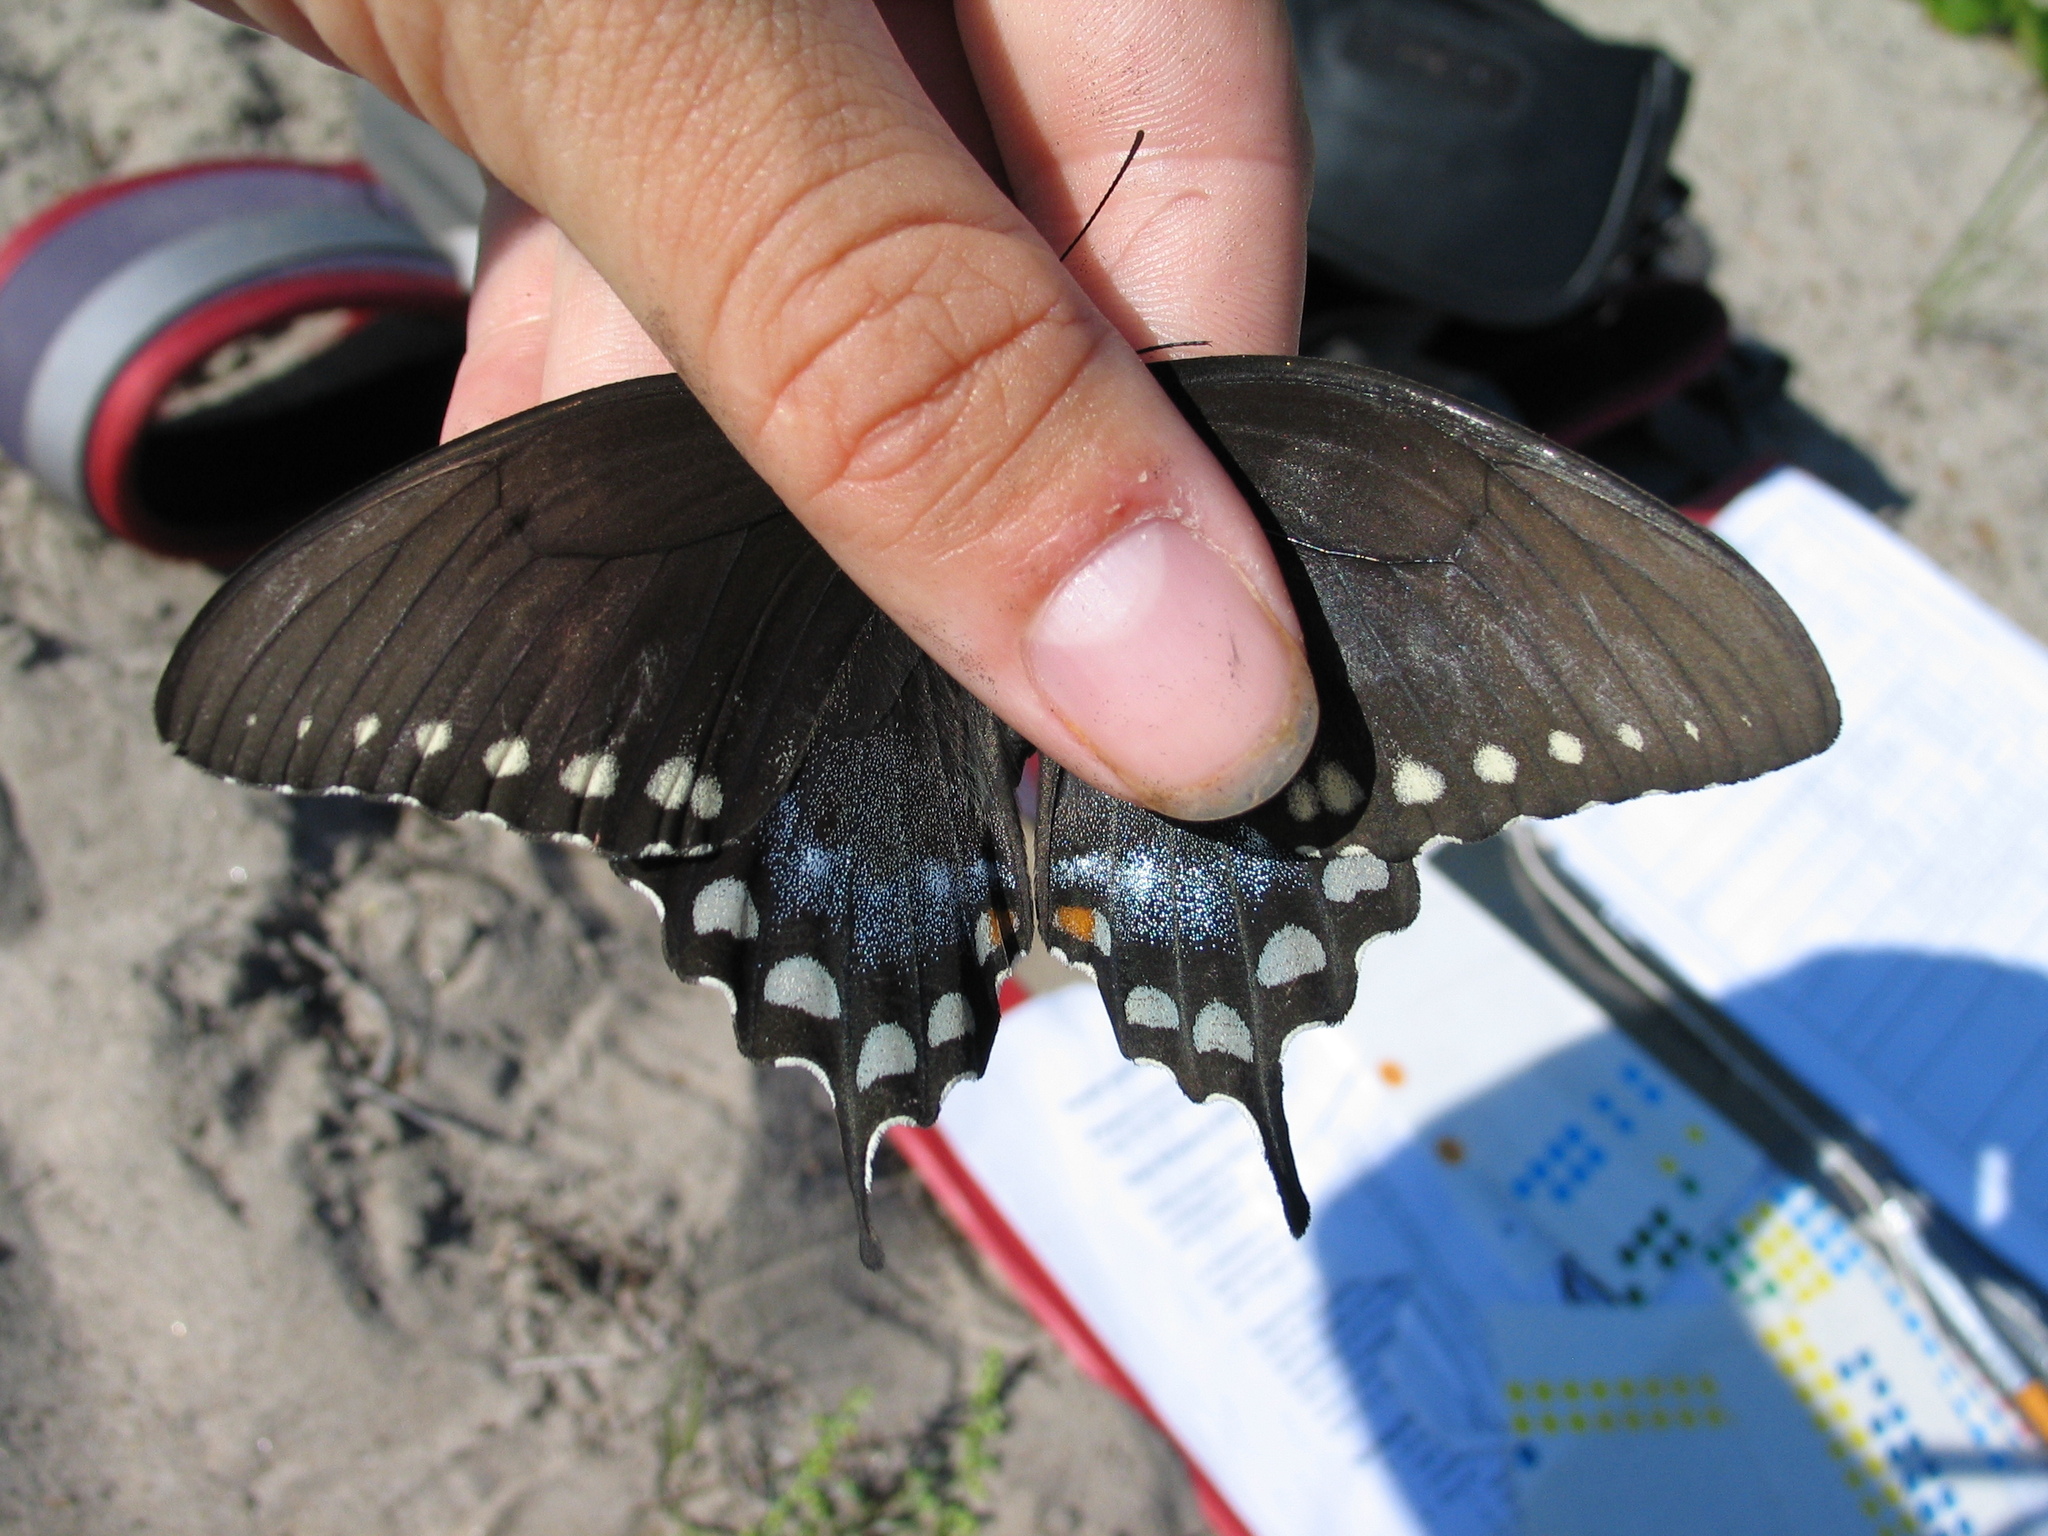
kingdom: Animalia
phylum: Arthropoda
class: Insecta
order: Lepidoptera
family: Papilionidae
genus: Papilio
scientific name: Papilio troilus
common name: Spicebush swallowtail
